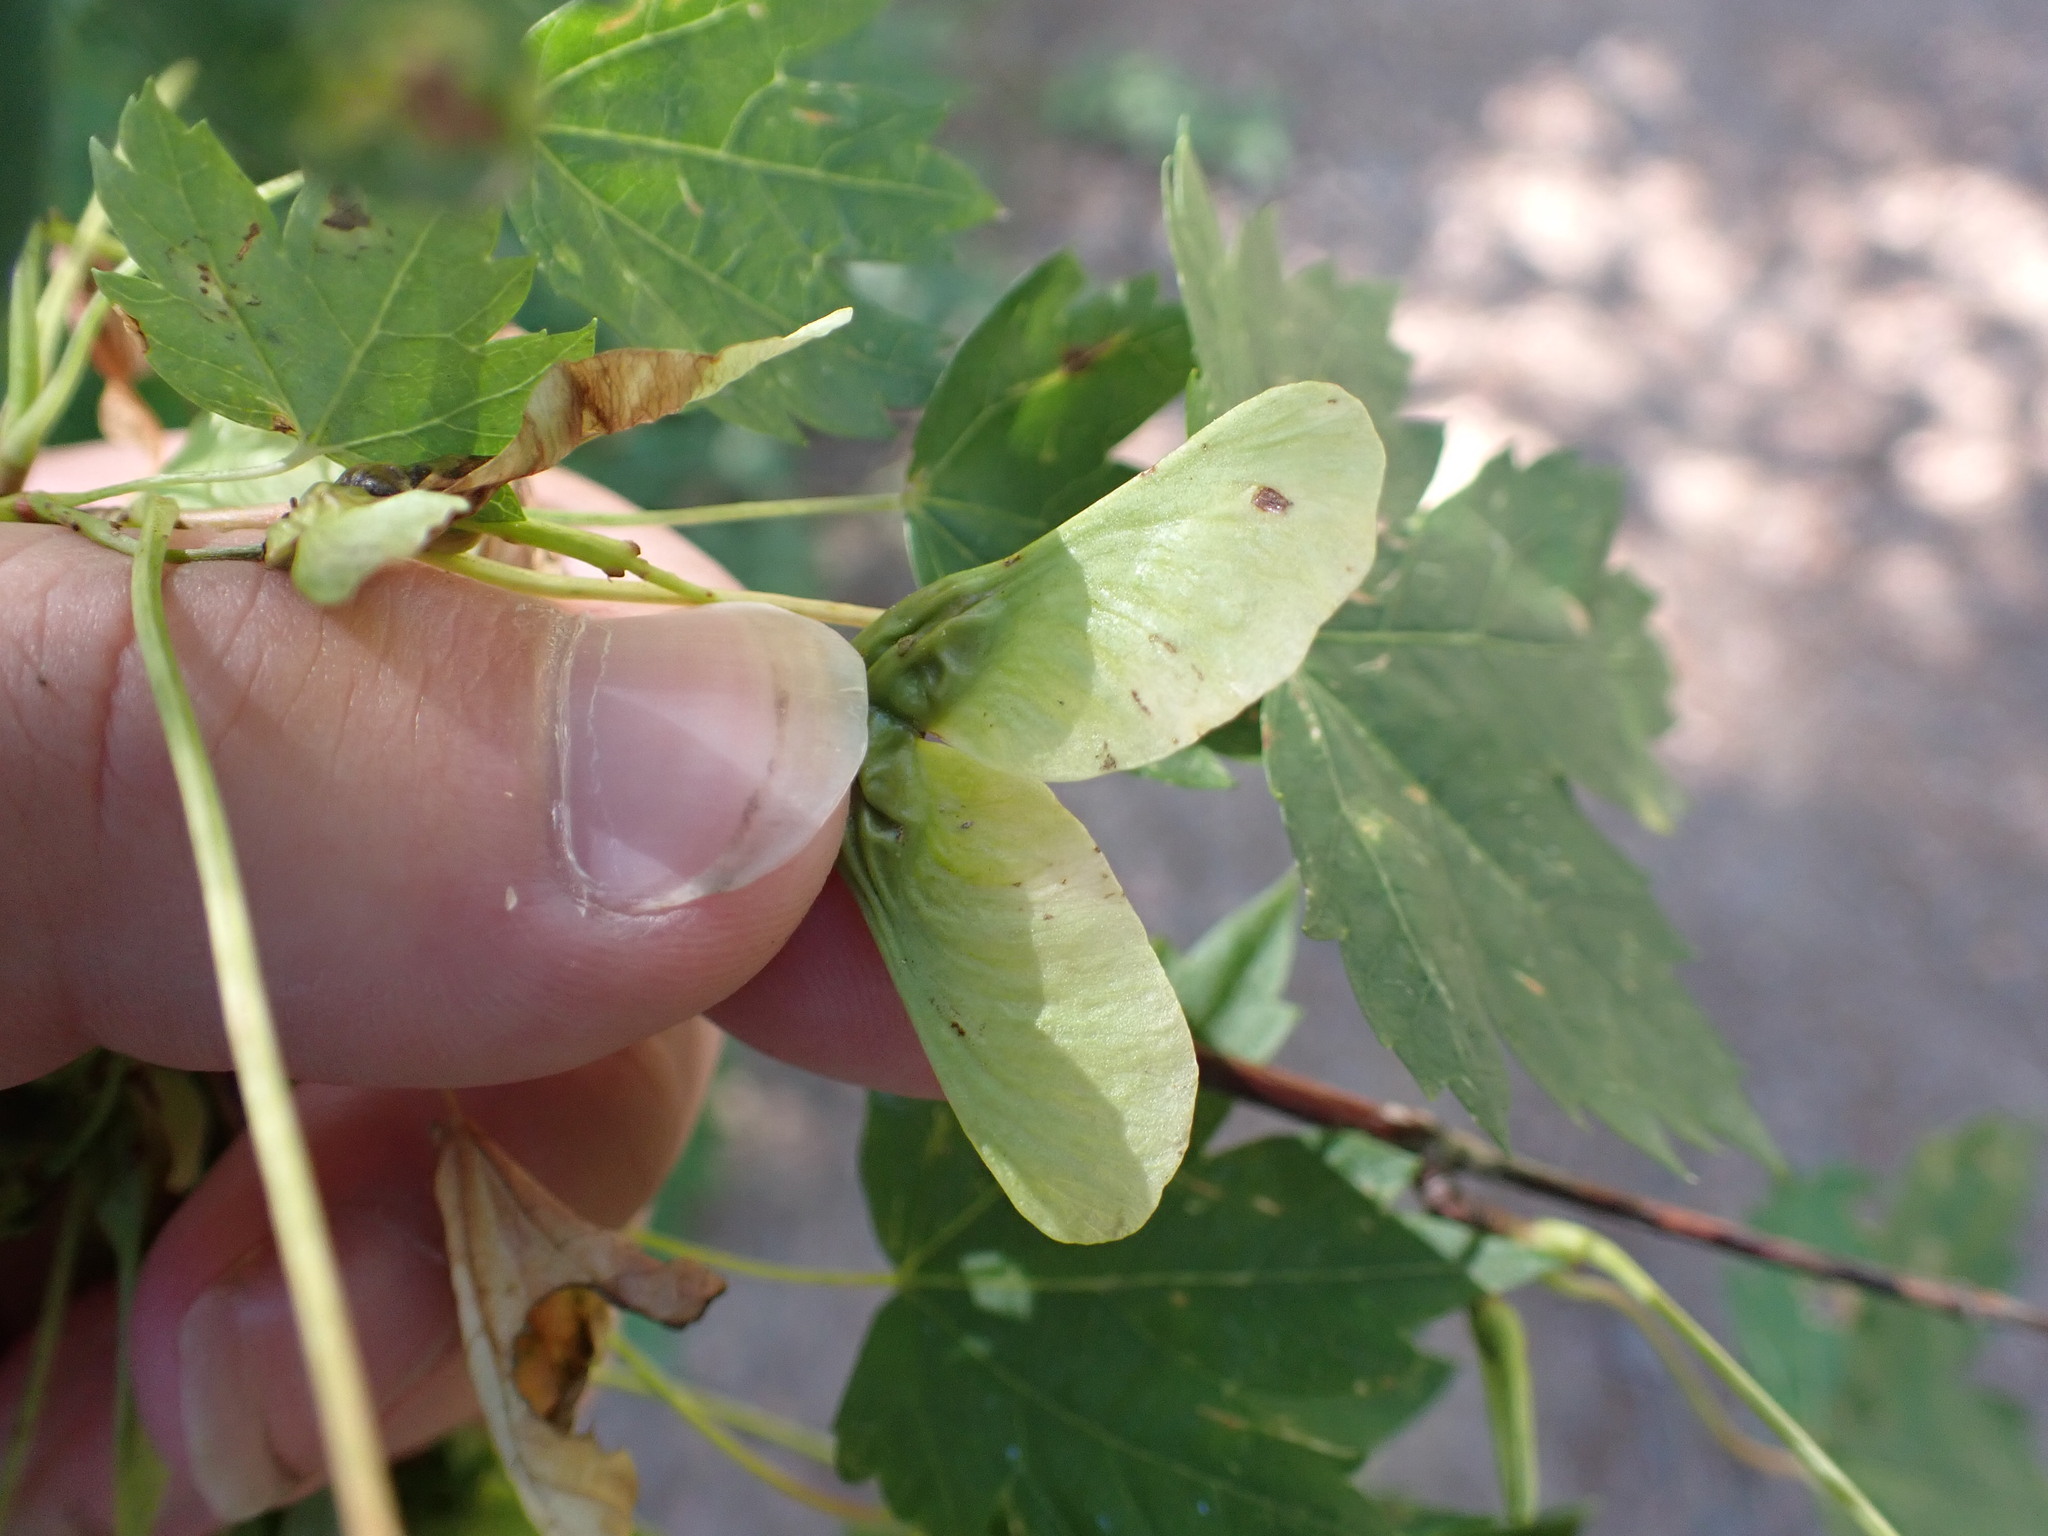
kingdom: Plantae
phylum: Tracheophyta
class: Magnoliopsida
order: Sapindales
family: Sapindaceae
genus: Acer
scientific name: Acer glabrum
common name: Rocky mountain maple
